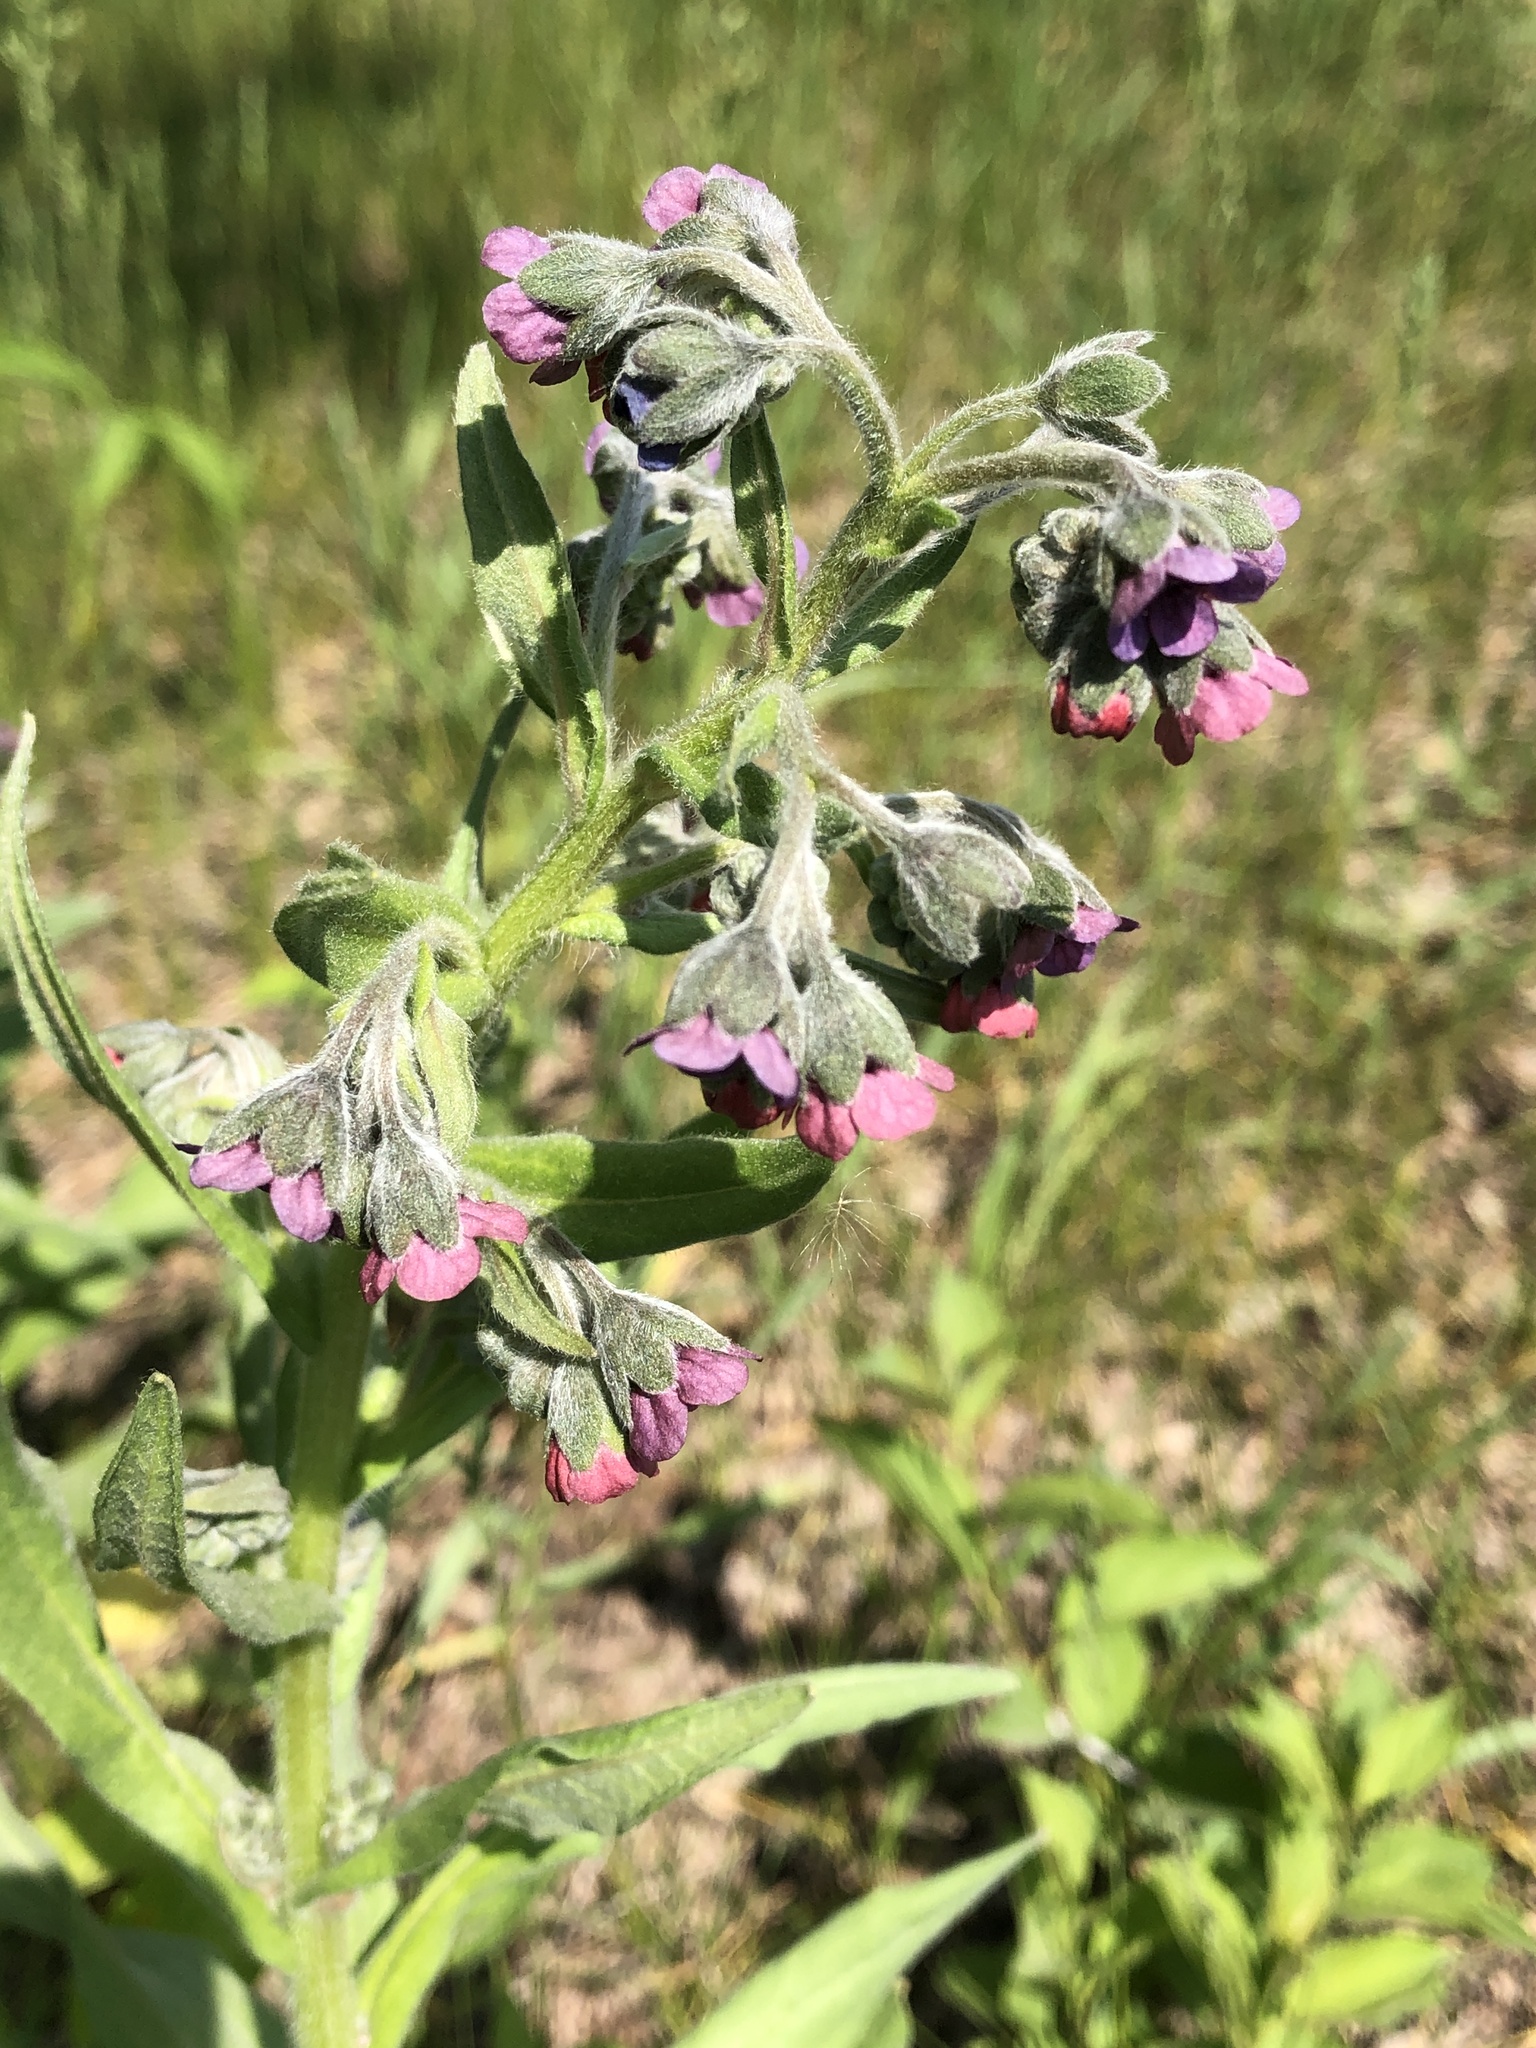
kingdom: Plantae
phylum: Tracheophyta
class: Magnoliopsida
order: Boraginales
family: Boraginaceae
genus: Cynoglossum
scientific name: Cynoglossum officinale
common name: Hound's-tongue
